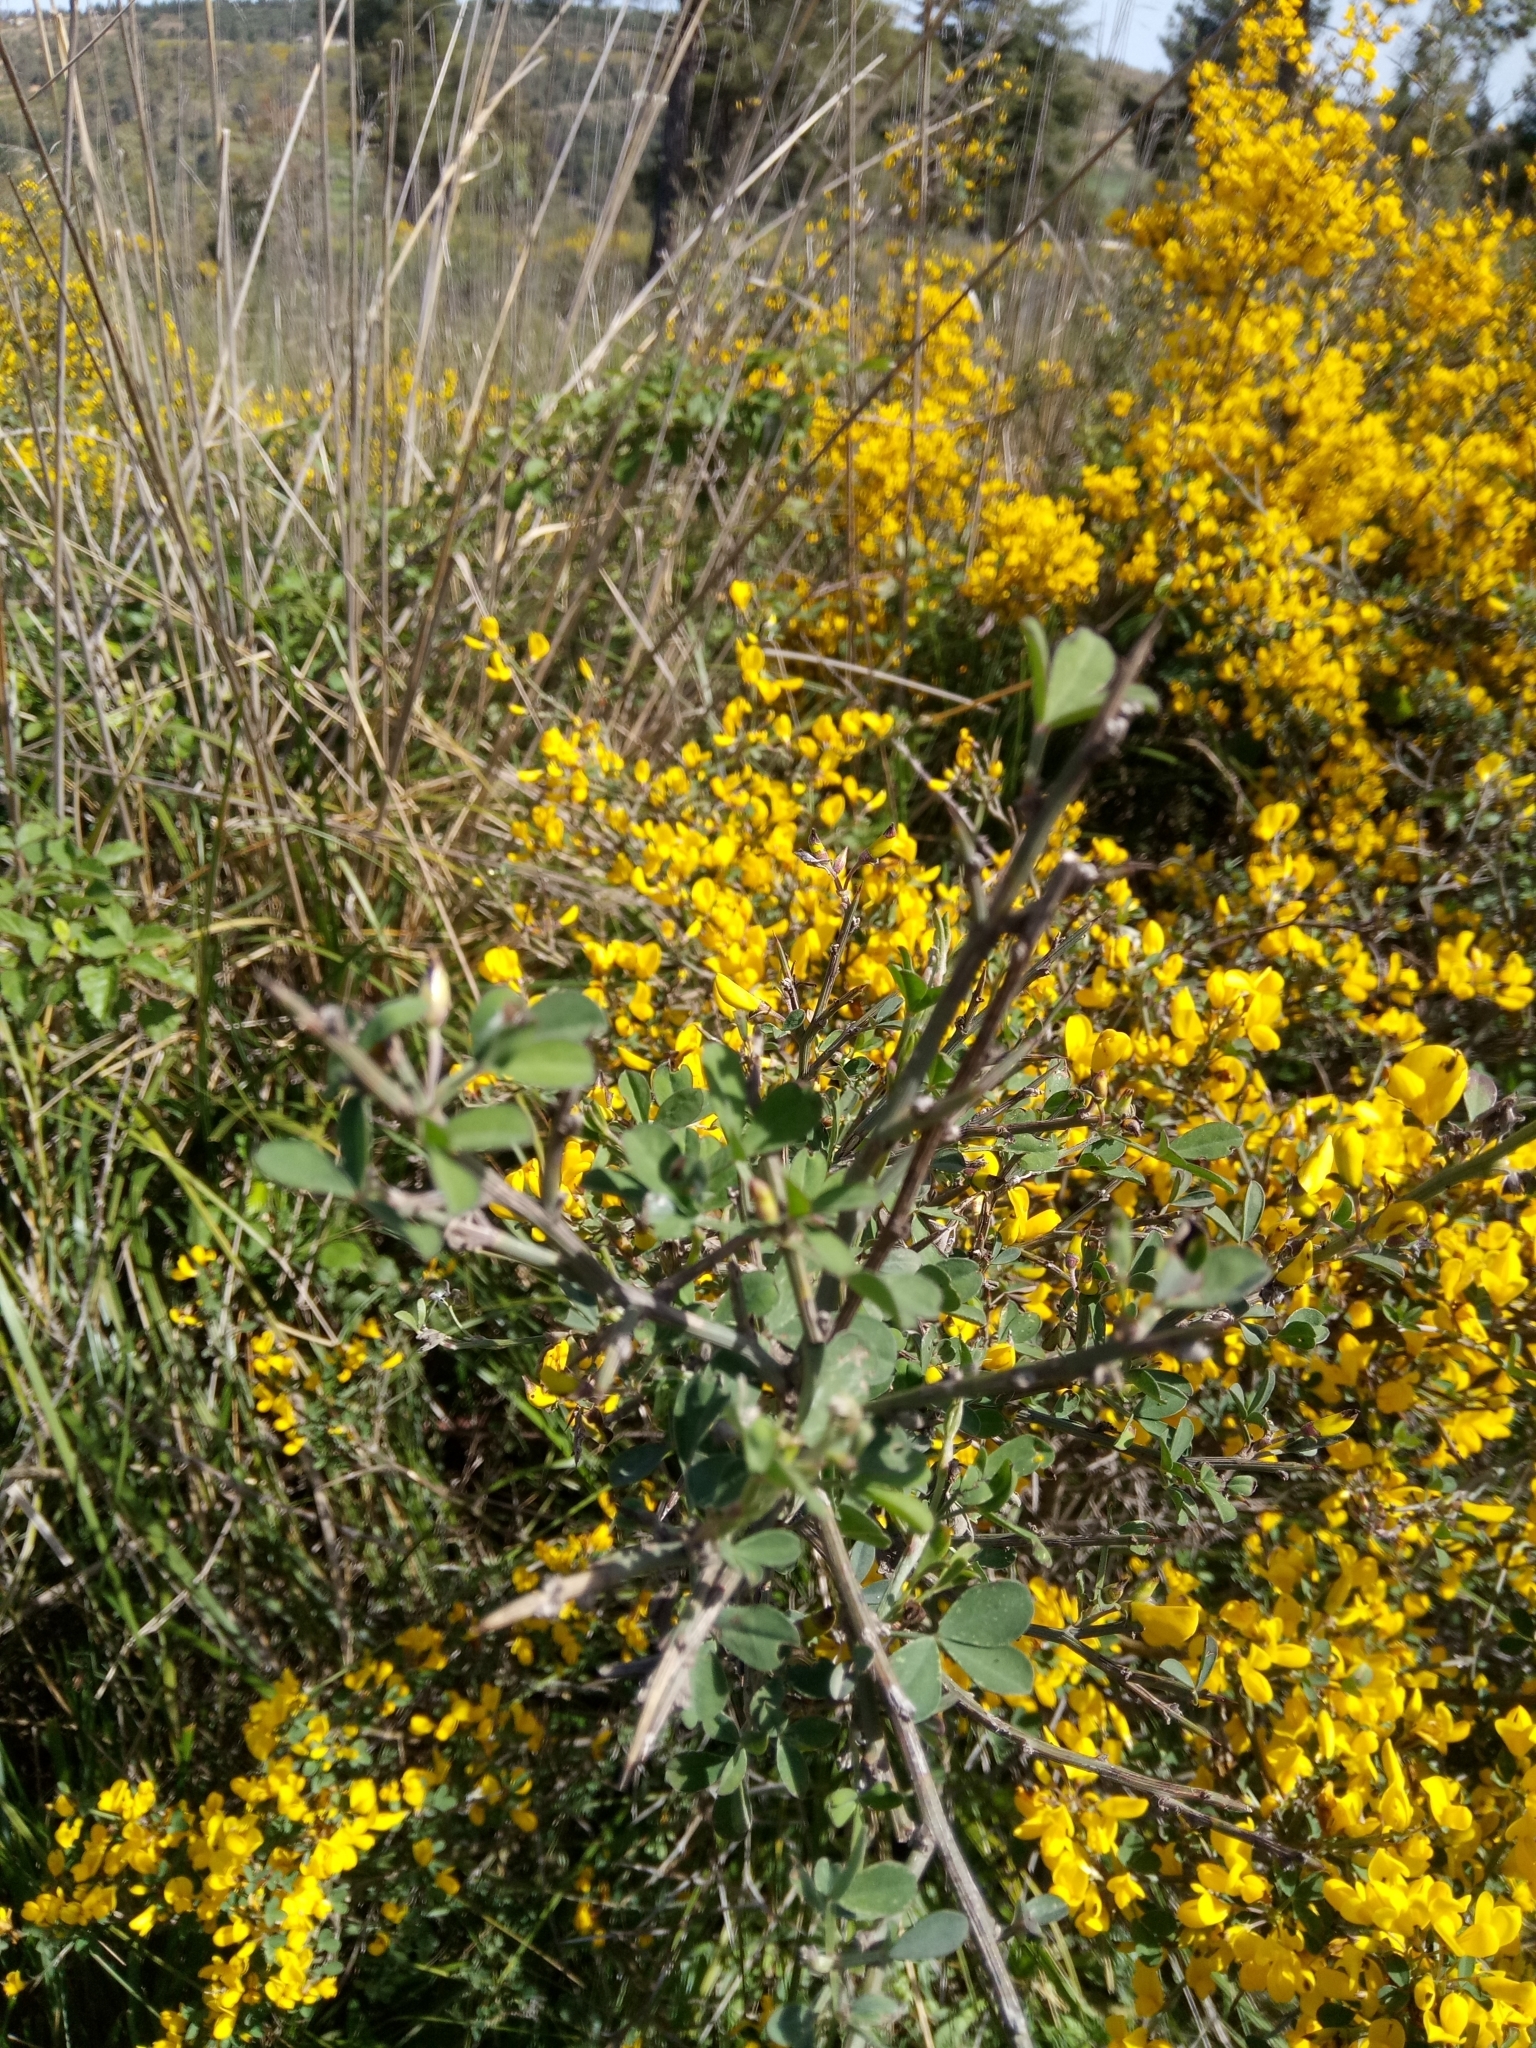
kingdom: Plantae
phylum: Tracheophyta
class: Magnoliopsida
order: Fabales
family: Fabaceae
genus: Calicotome
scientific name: Calicotome spinosa
